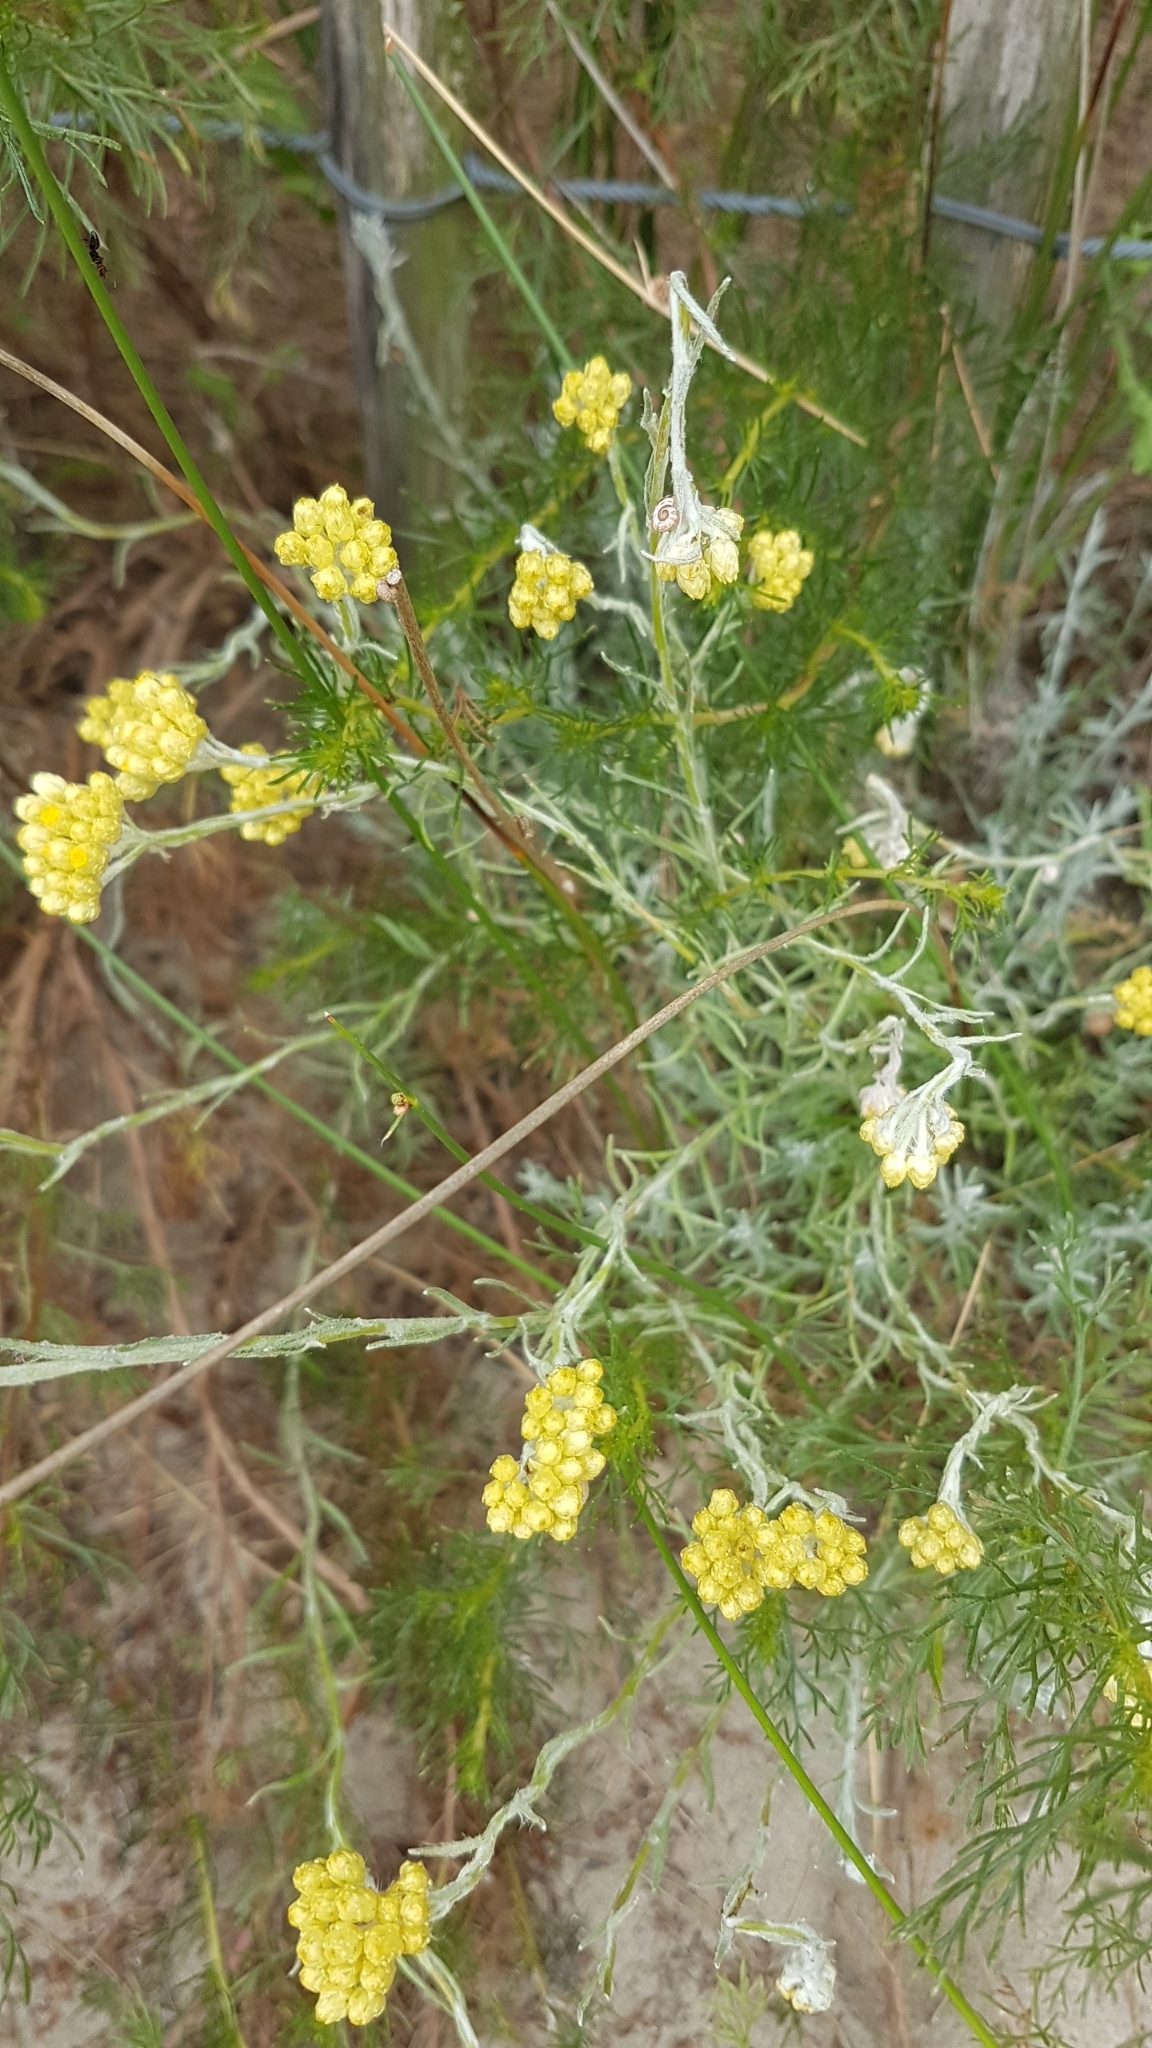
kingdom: Plantae
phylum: Tracheophyta
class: Magnoliopsida
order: Asterales
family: Asteraceae
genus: Helichrysum
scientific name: Helichrysum stoechas
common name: Goldilocks
